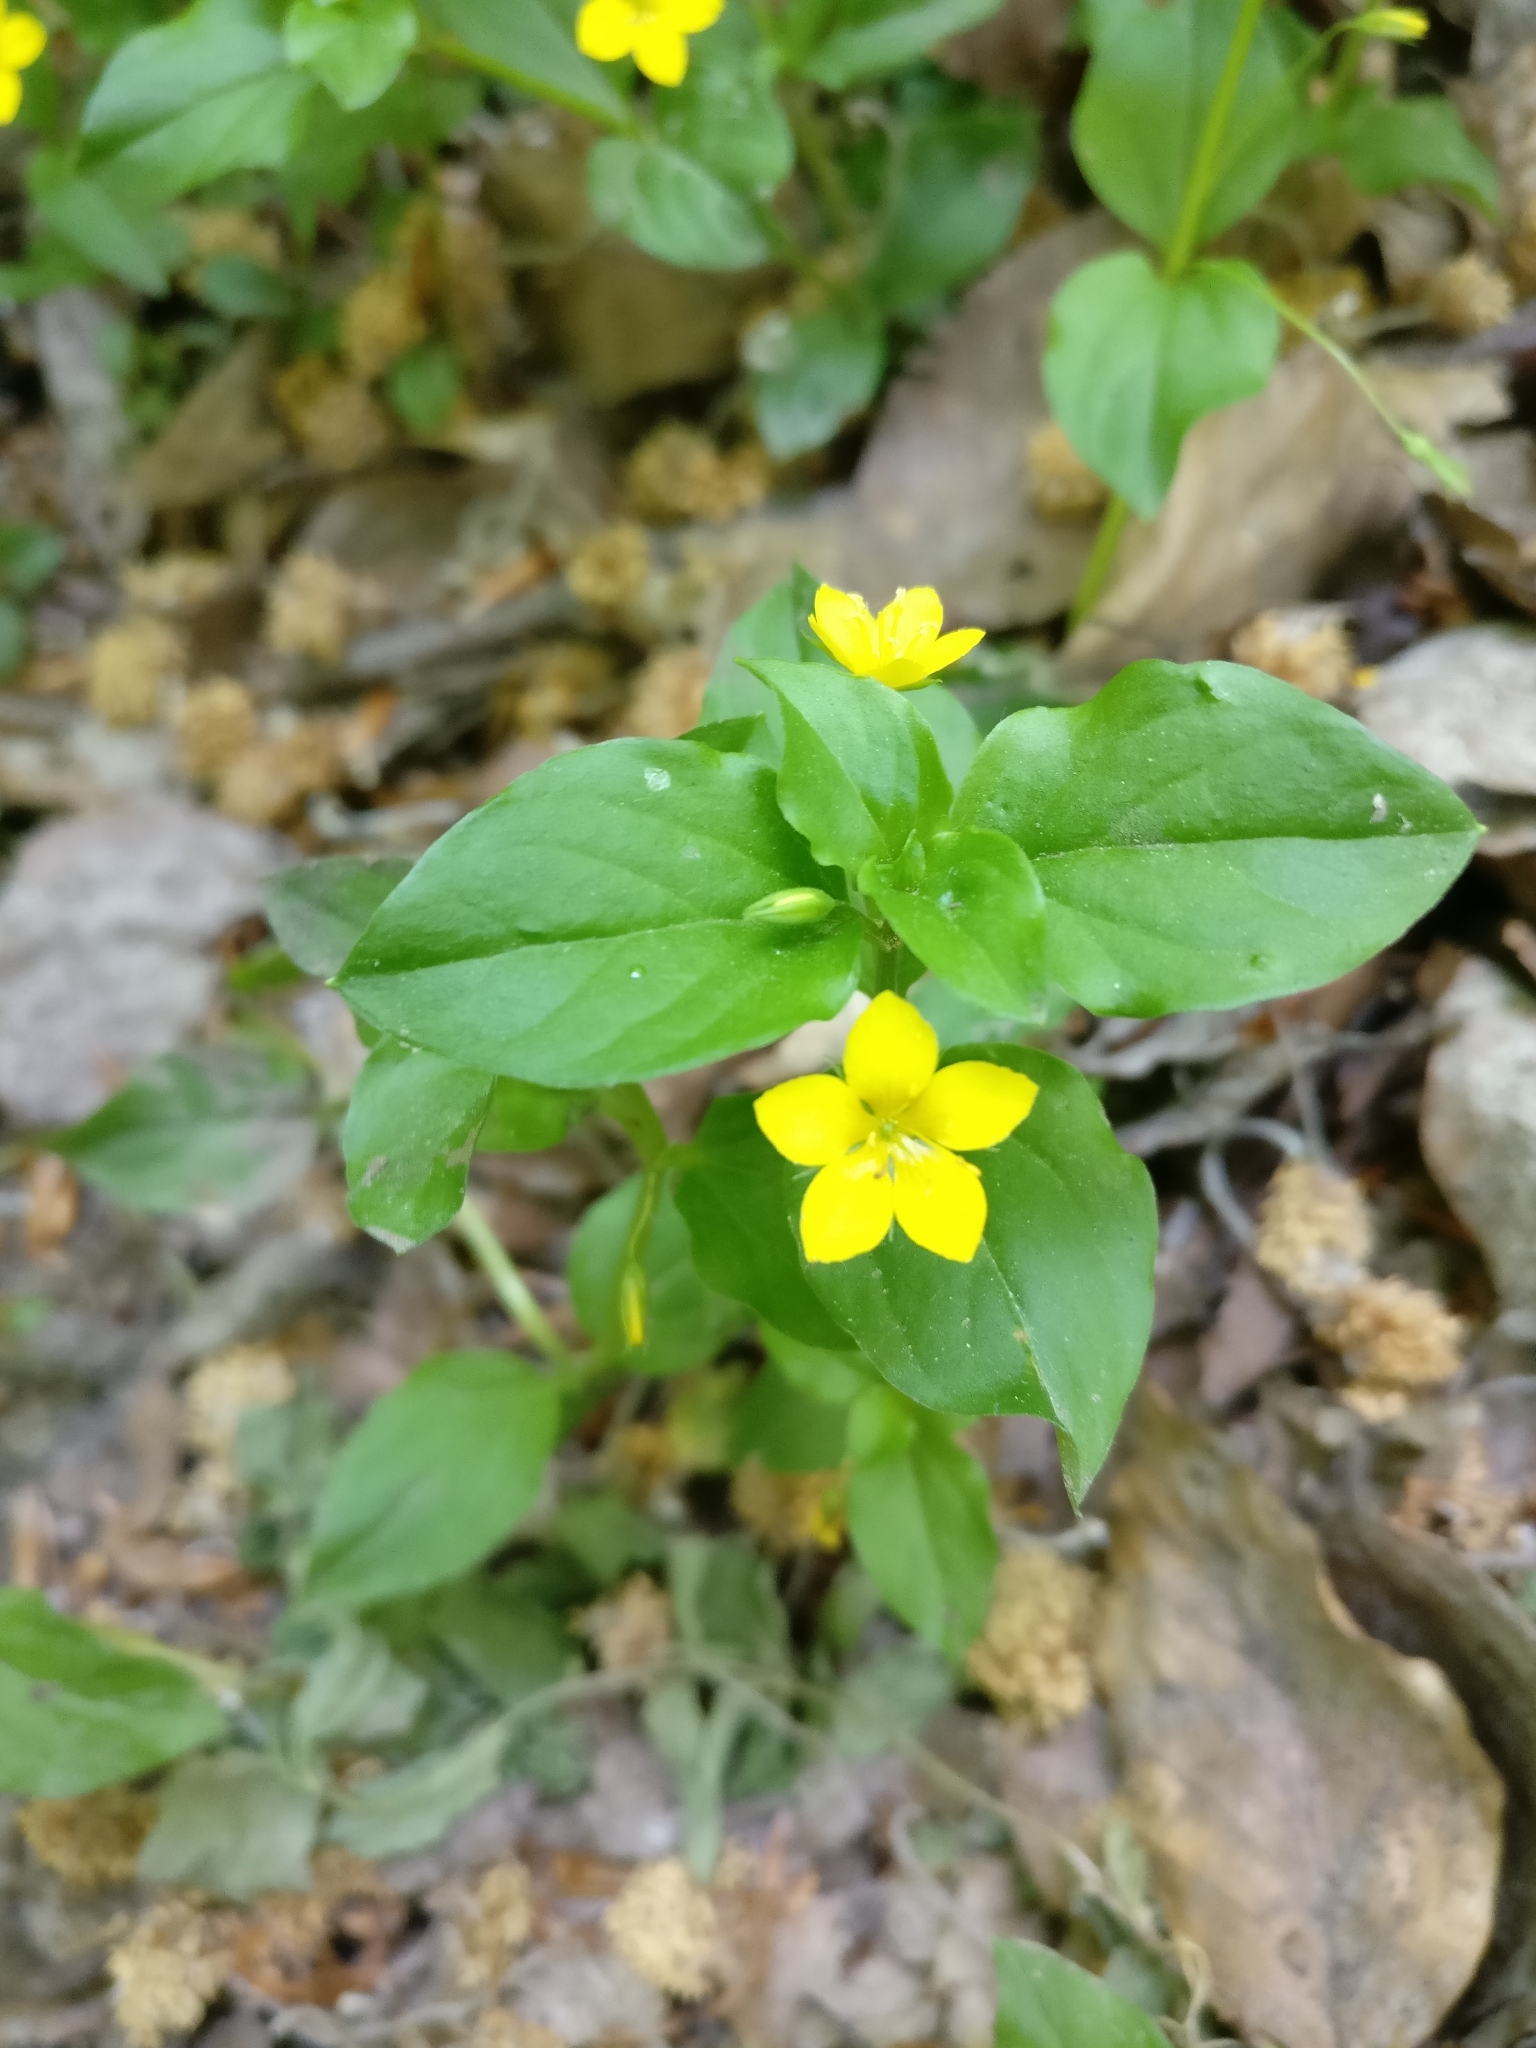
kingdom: Plantae
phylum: Tracheophyta
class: Magnoliopsida
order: Ericales
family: Primulaceae
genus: Lysimachia
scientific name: Lysimachia nemorum
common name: Yellow pimpernel
